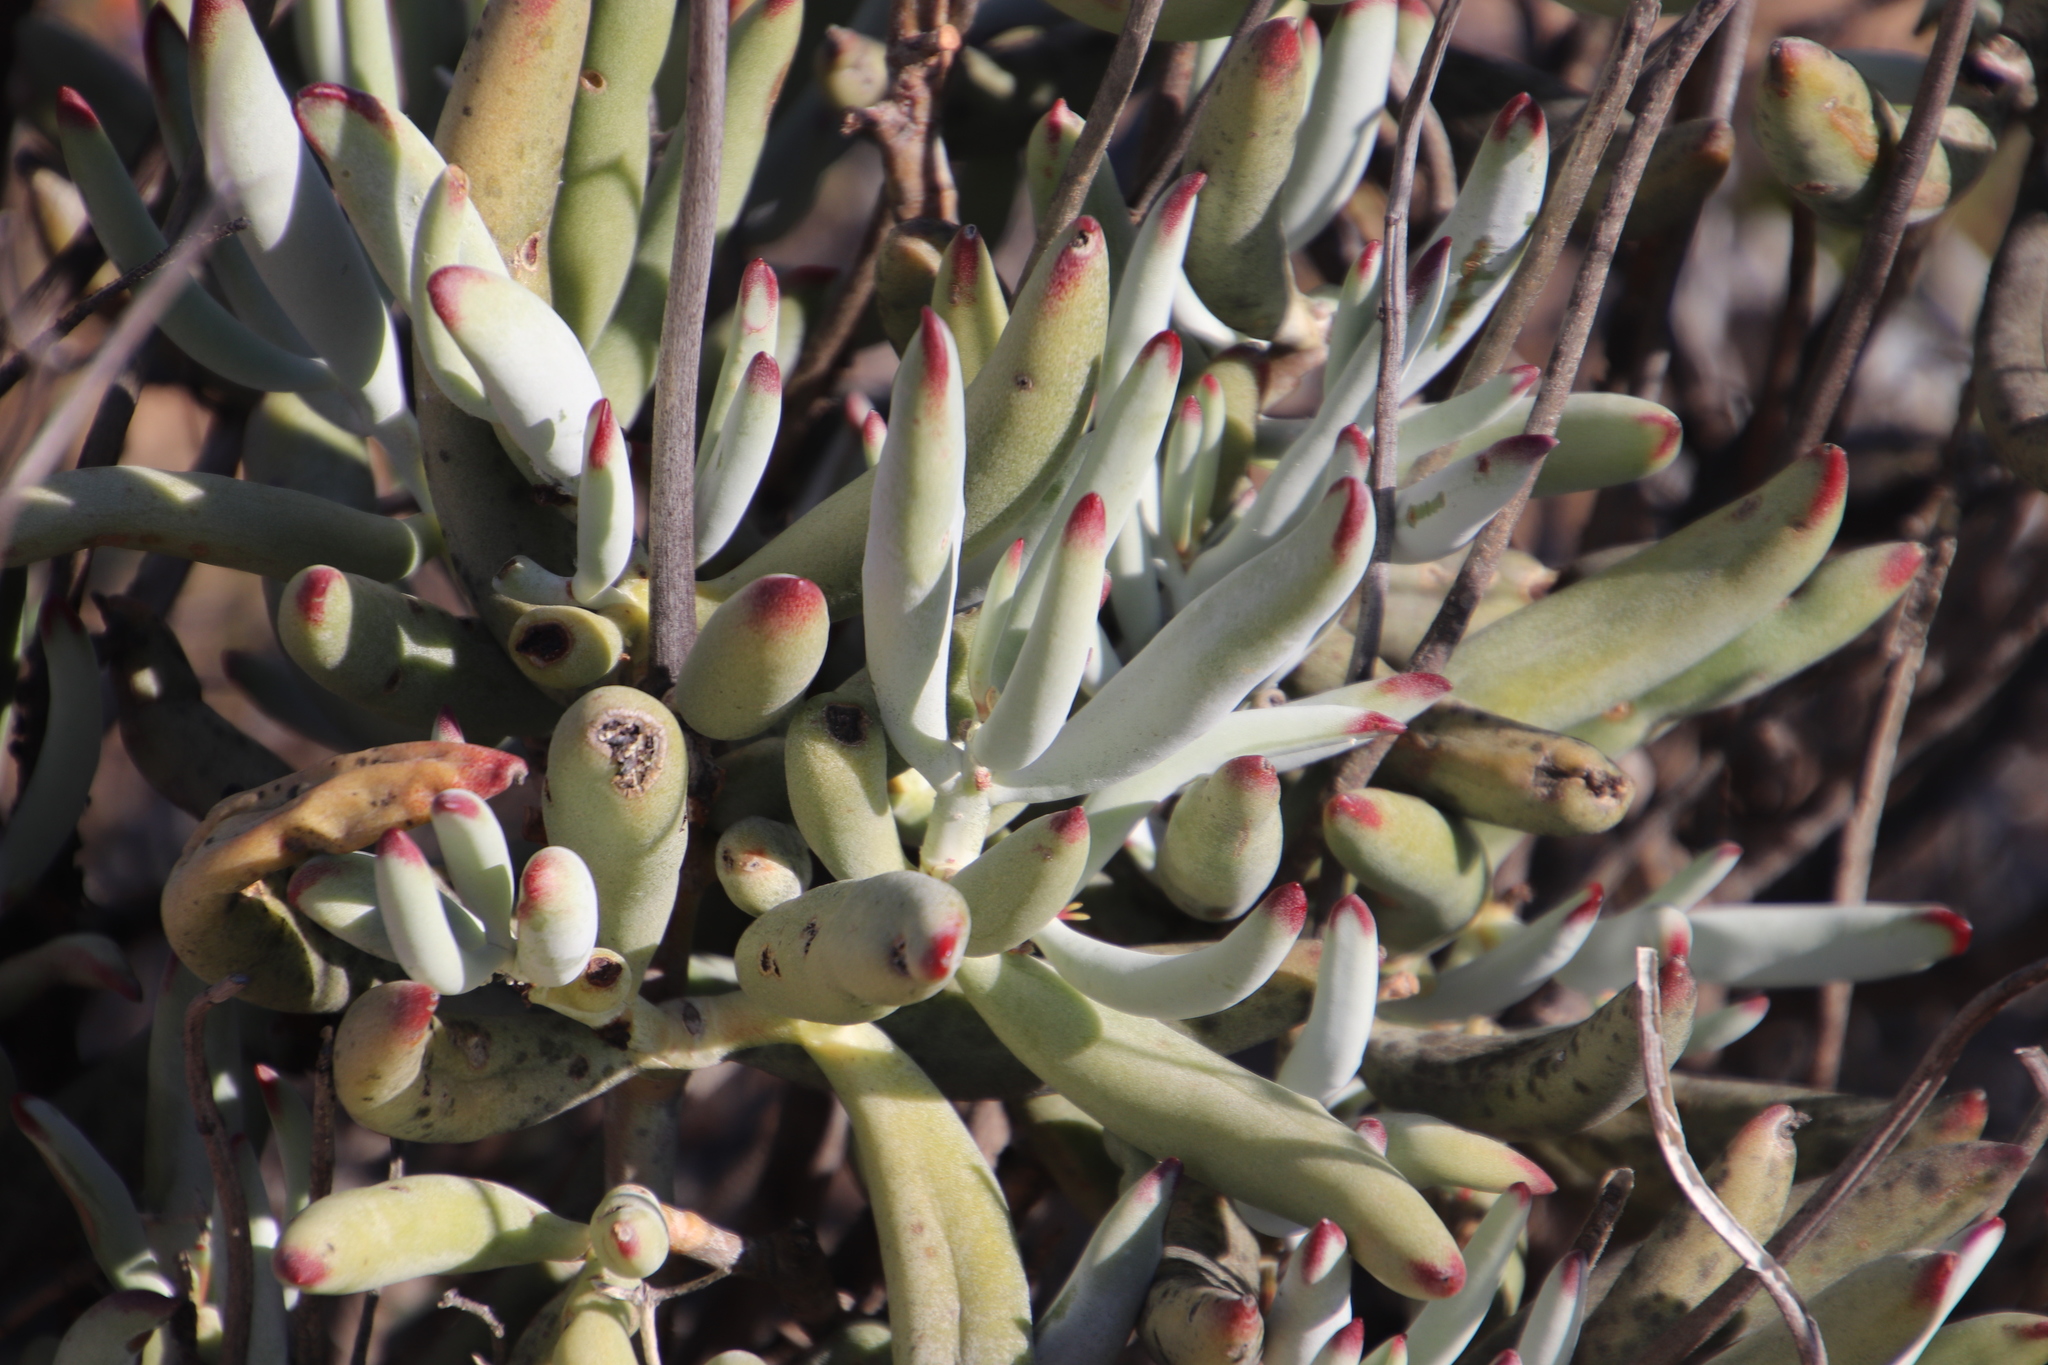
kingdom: Plantae
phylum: Tracheophyta
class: Magnoliopsida
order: Saxifragales
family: Crassulaceae
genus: Cotyledon
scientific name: Cotyledon orbiculata
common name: Pig's ear
